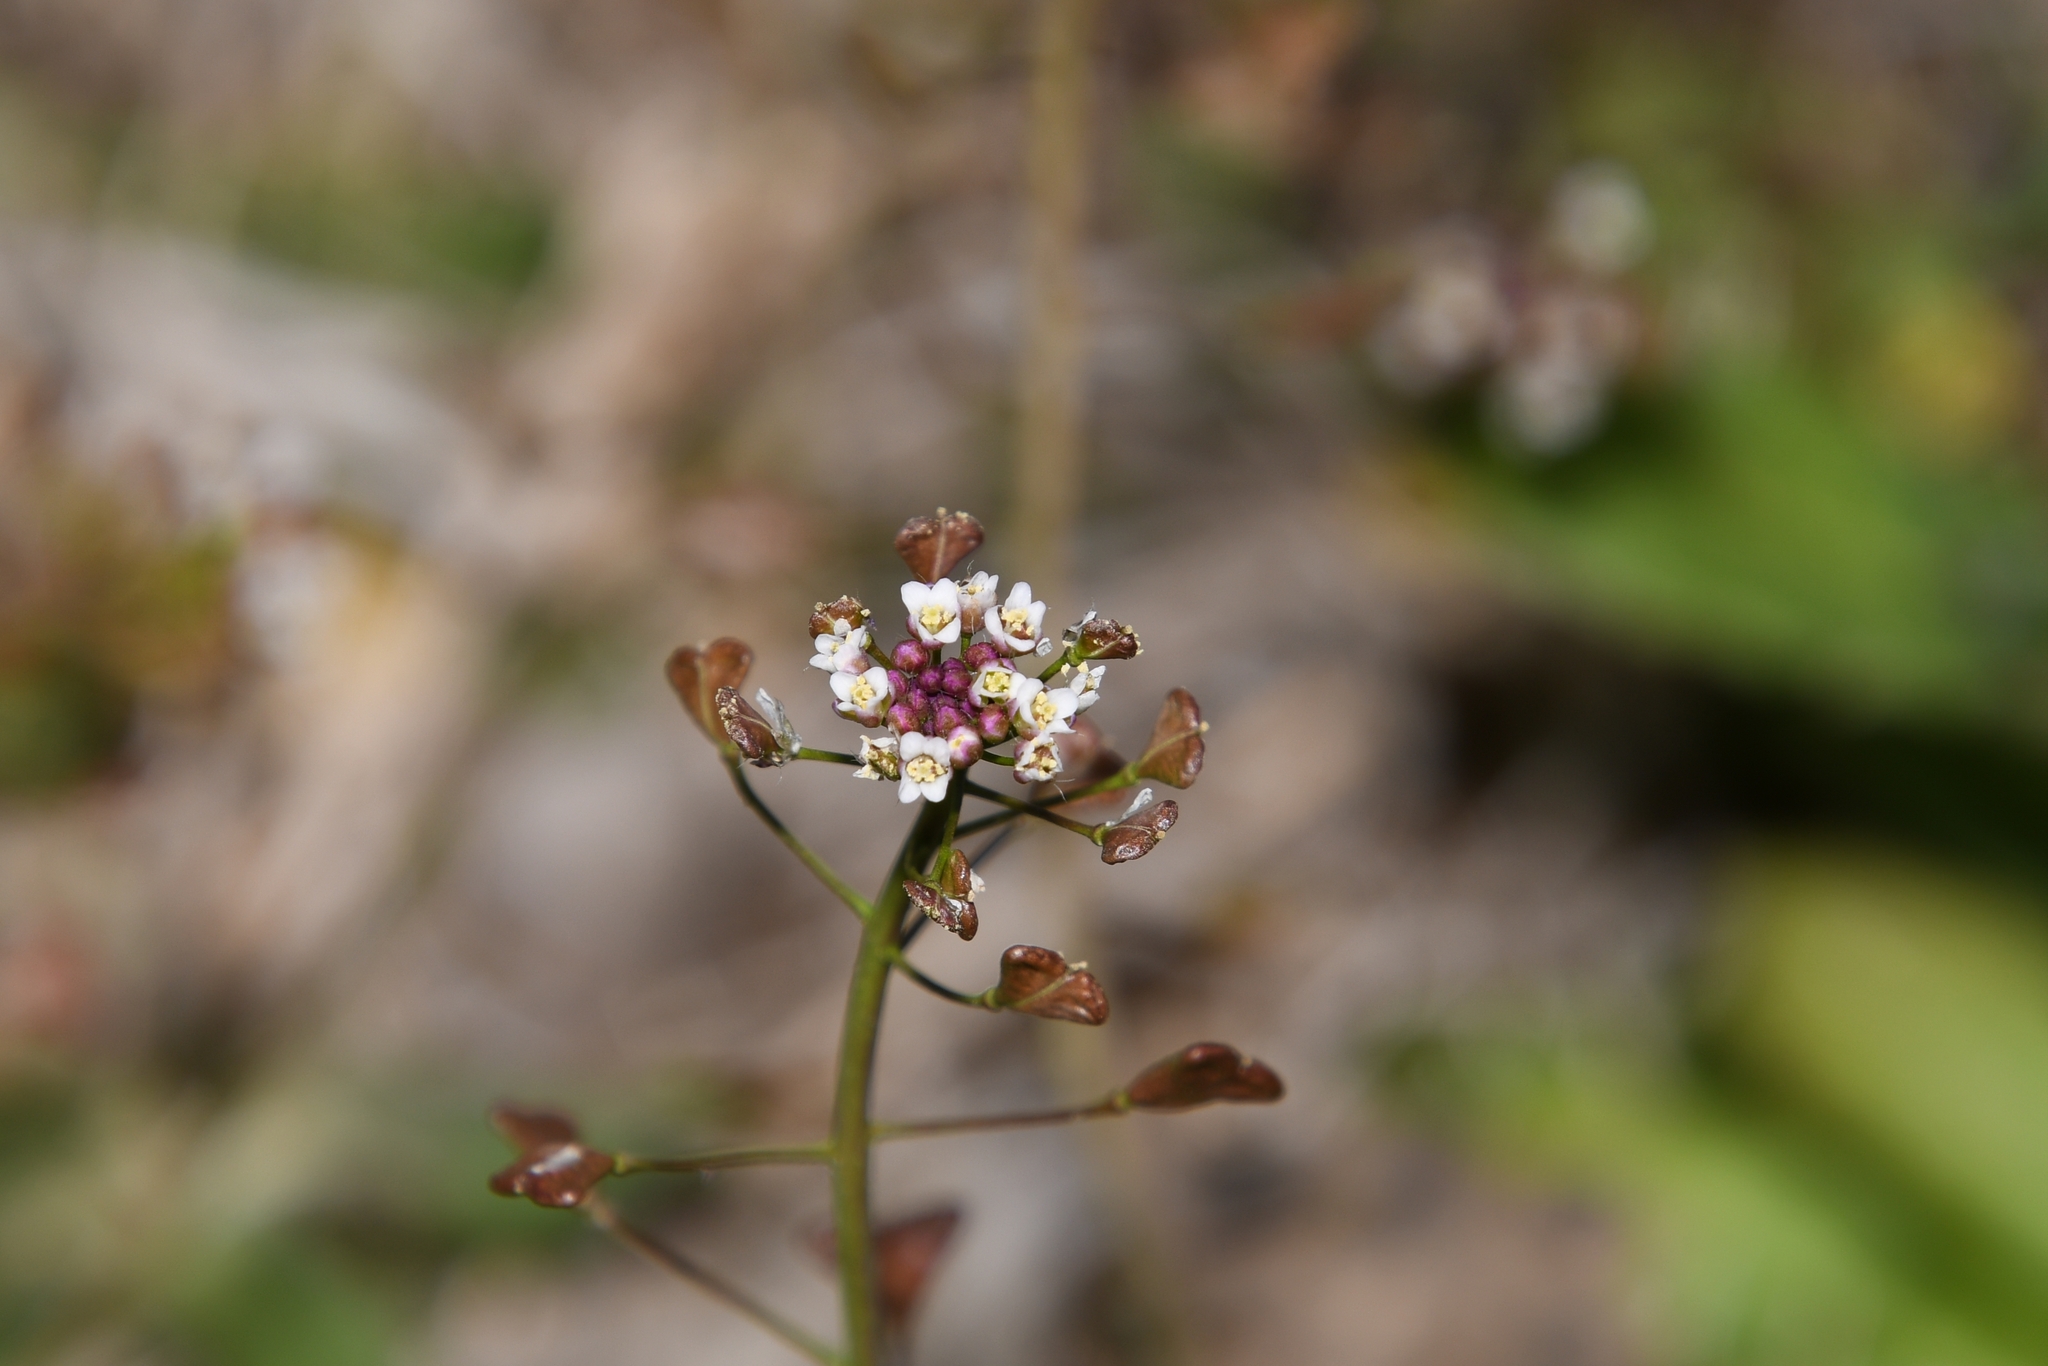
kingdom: Plantae
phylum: Tracheophyta
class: Magnoliopsida
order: Brassicales
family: Brassicaceae
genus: Capsella
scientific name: Capsella bursa-pastoris
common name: Shepherd's purse
